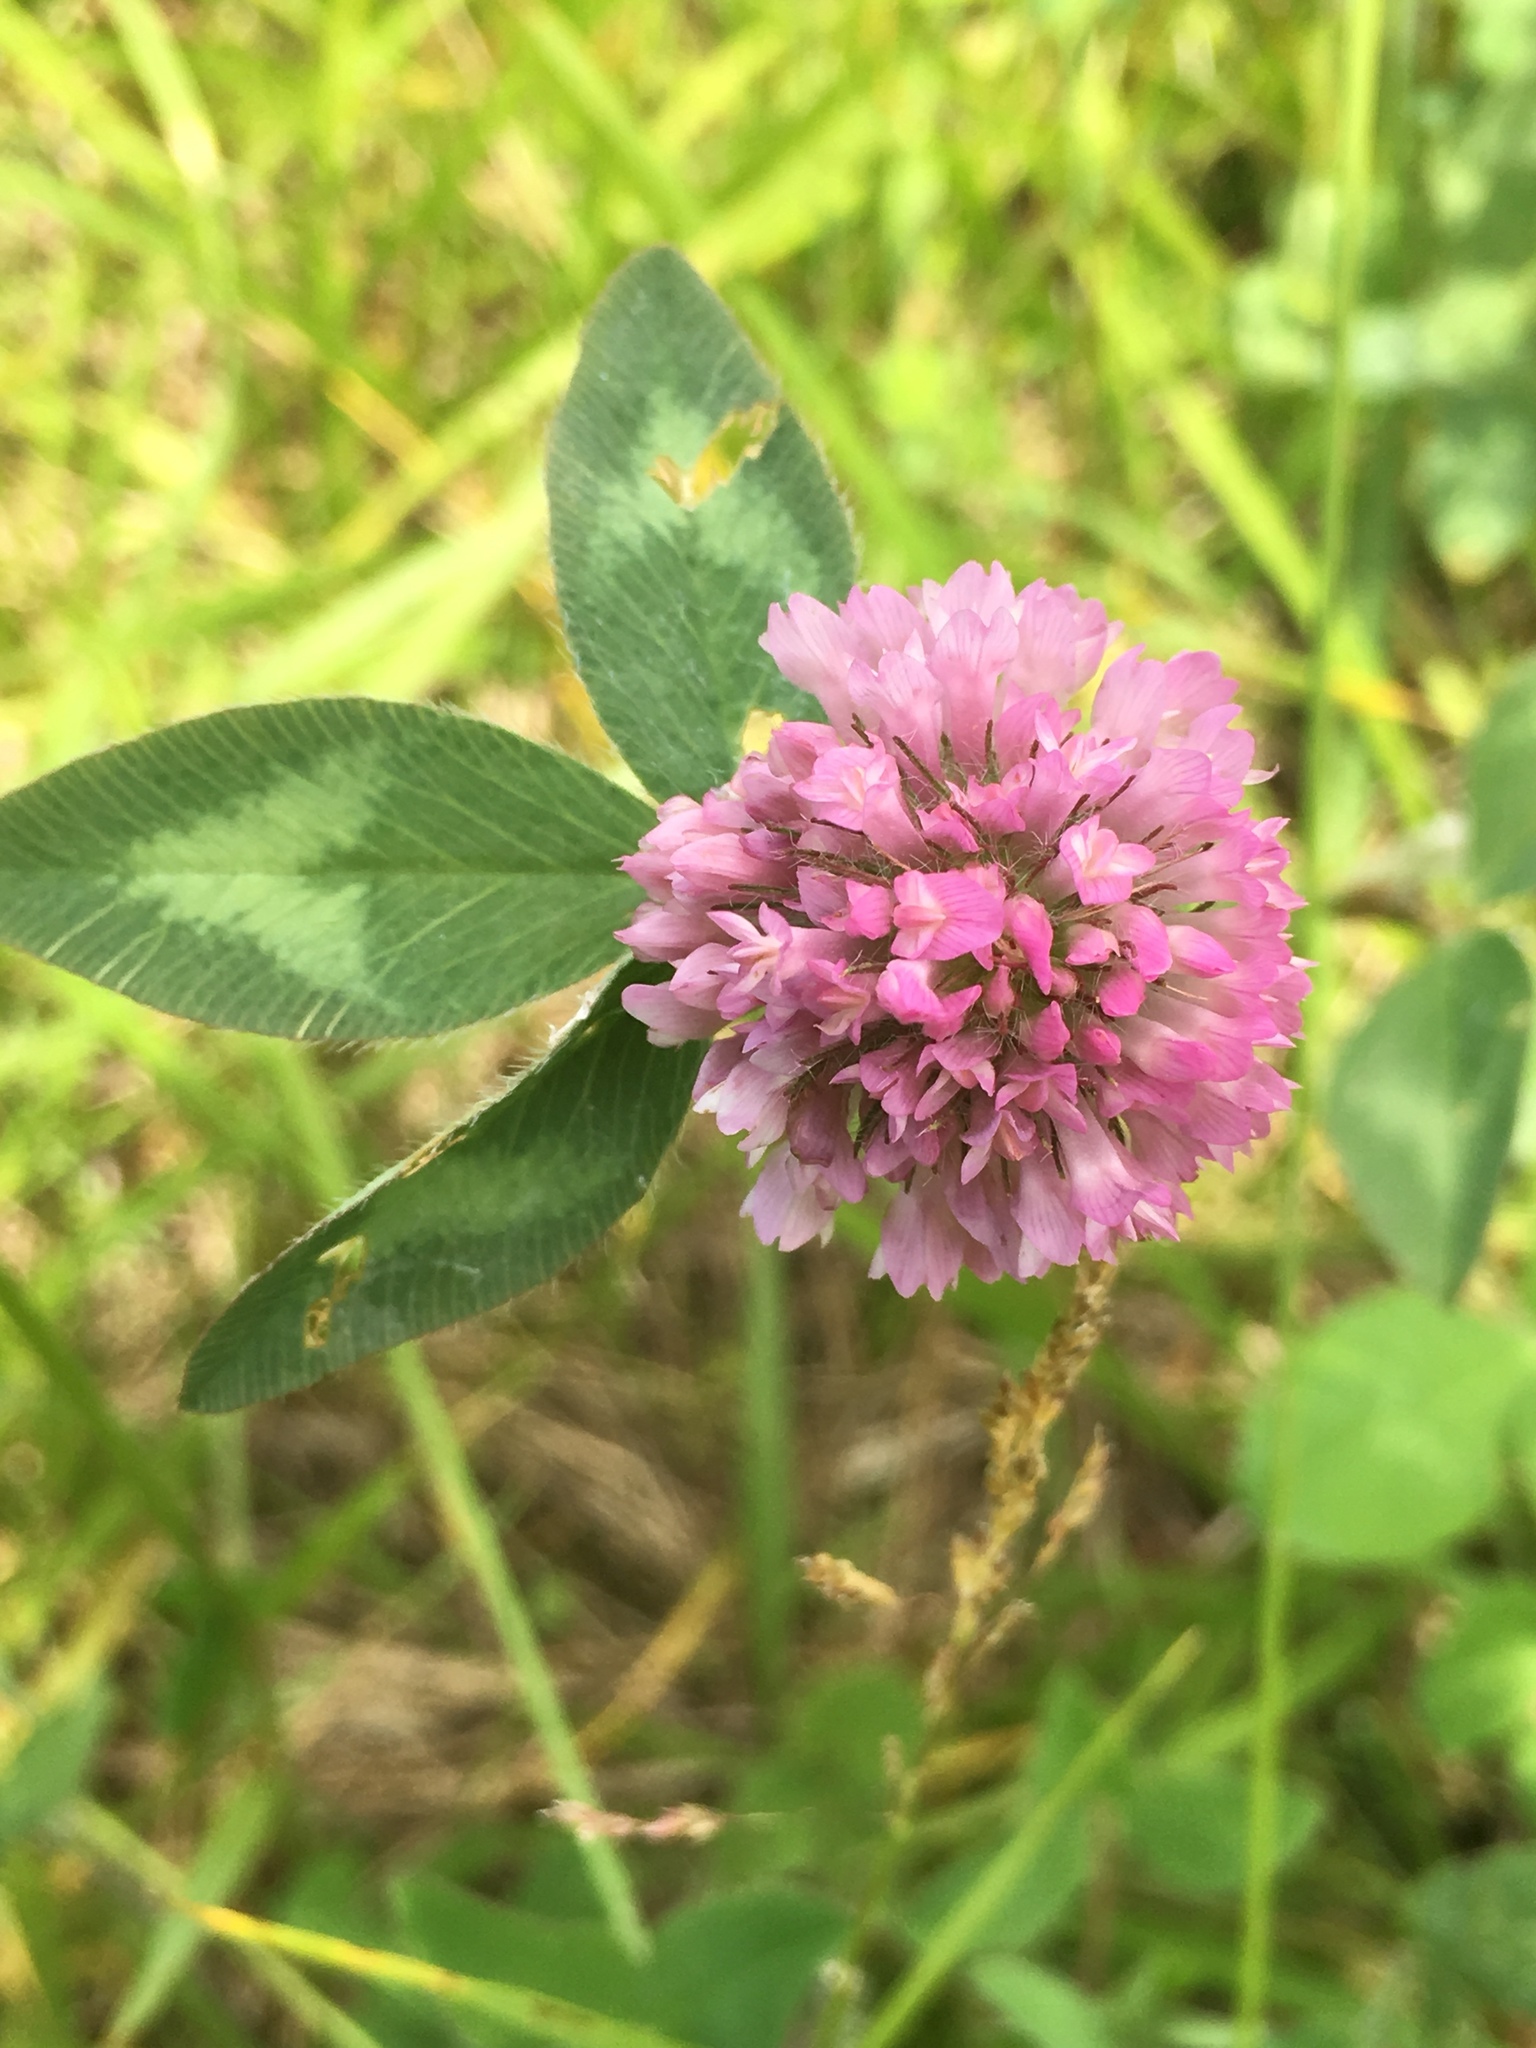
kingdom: Plantae
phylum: Tracheophyta
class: Magnoliopsida
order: Fabales
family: Fabaceae
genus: Trifolium
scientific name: Trifolium pratense
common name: Red clover
